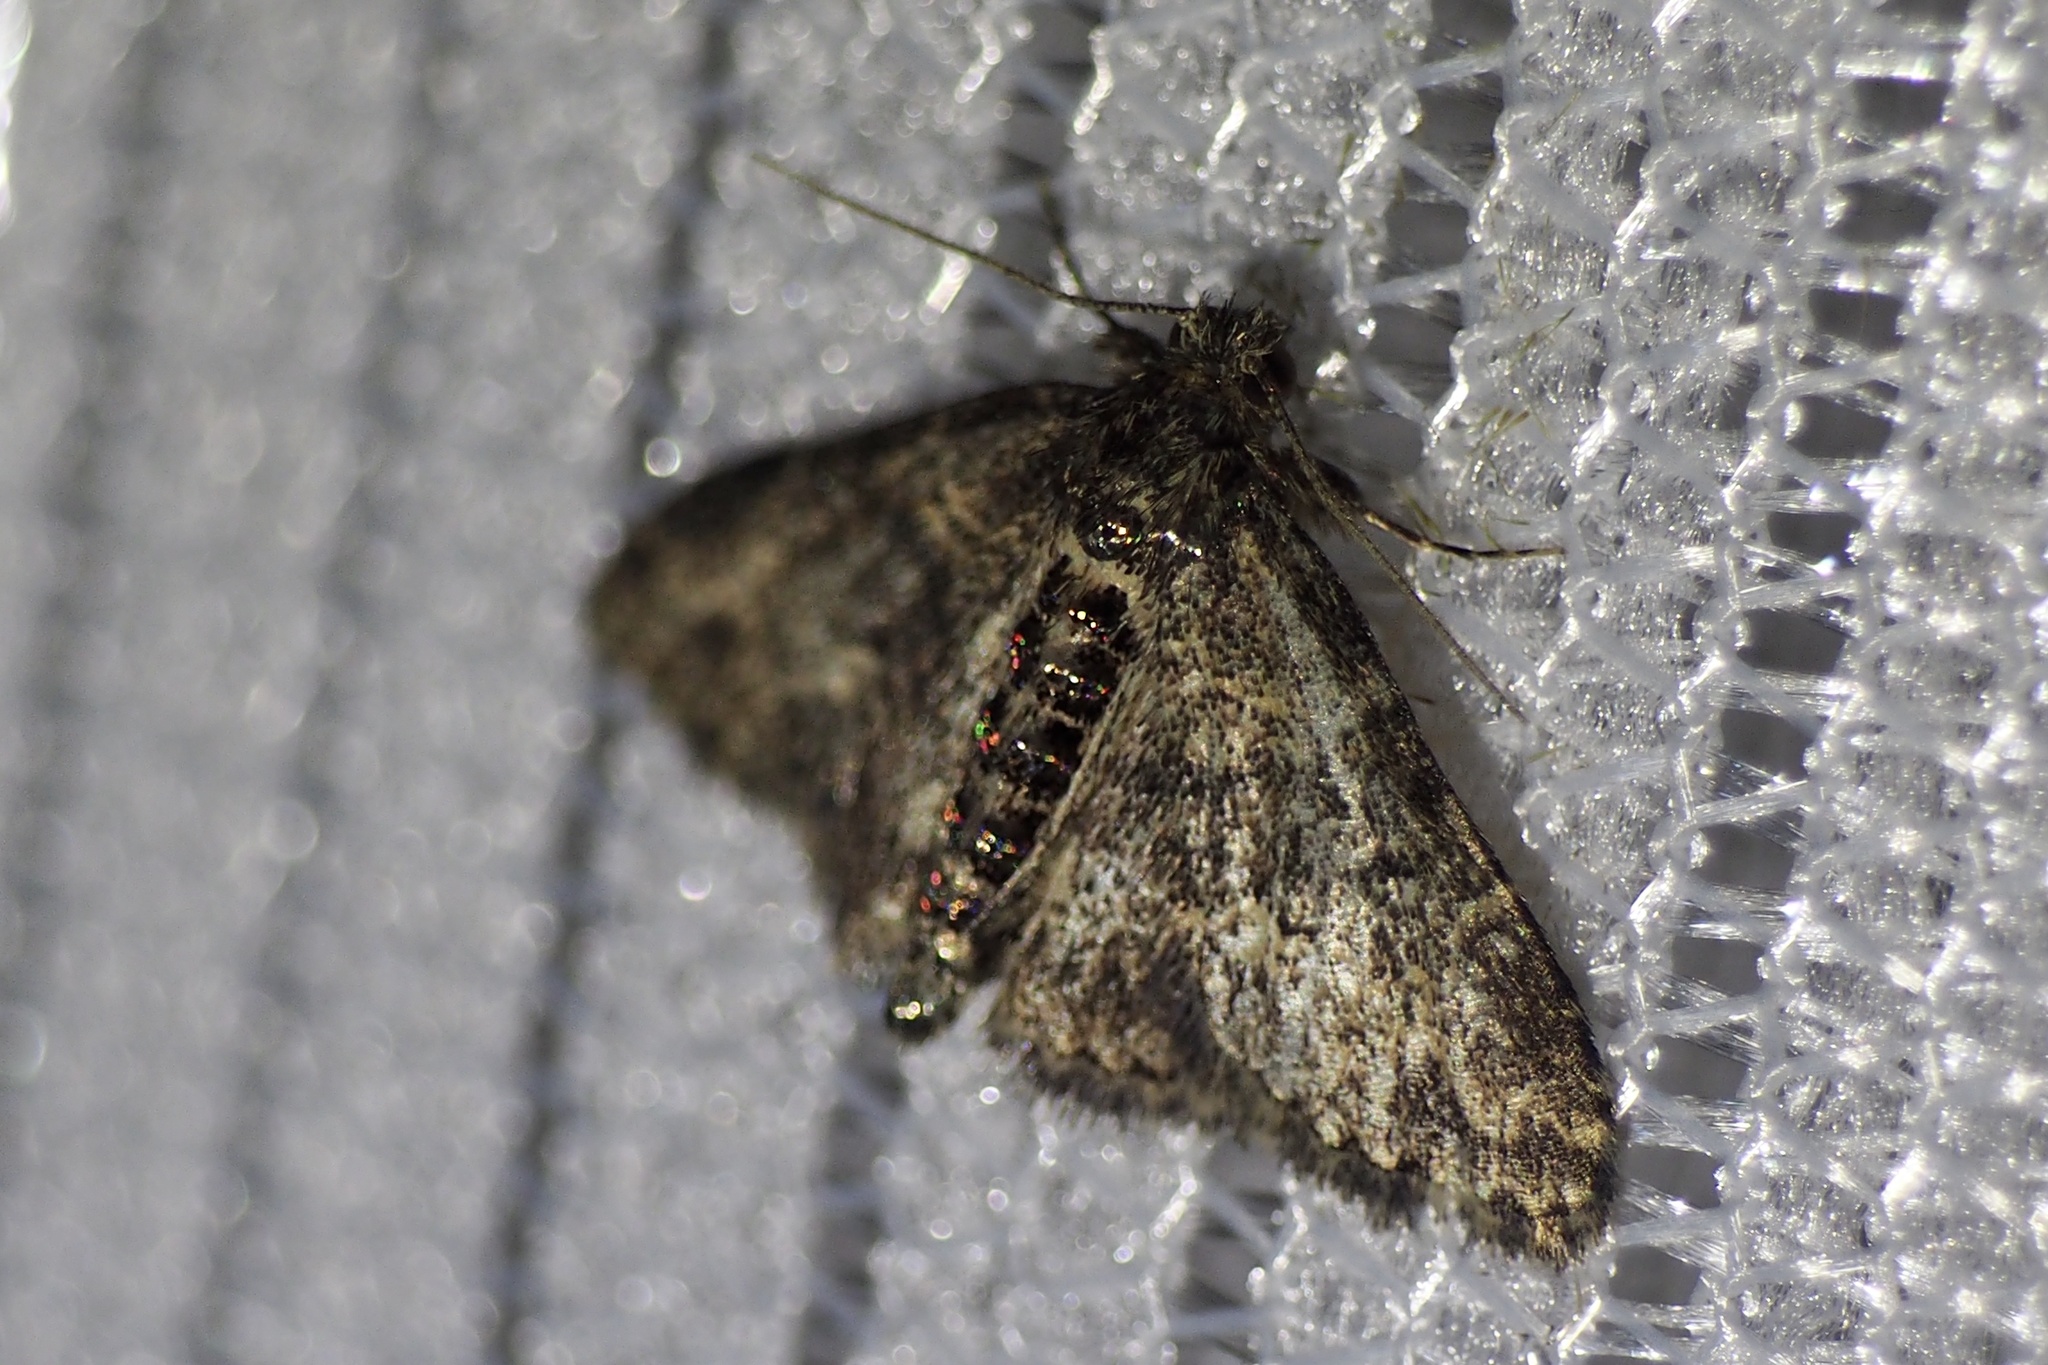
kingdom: Animalia
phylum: Arthropoda
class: Insecta
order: Lepidoptera
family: Erebidae
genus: Paragona
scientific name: Paragona inchoata
